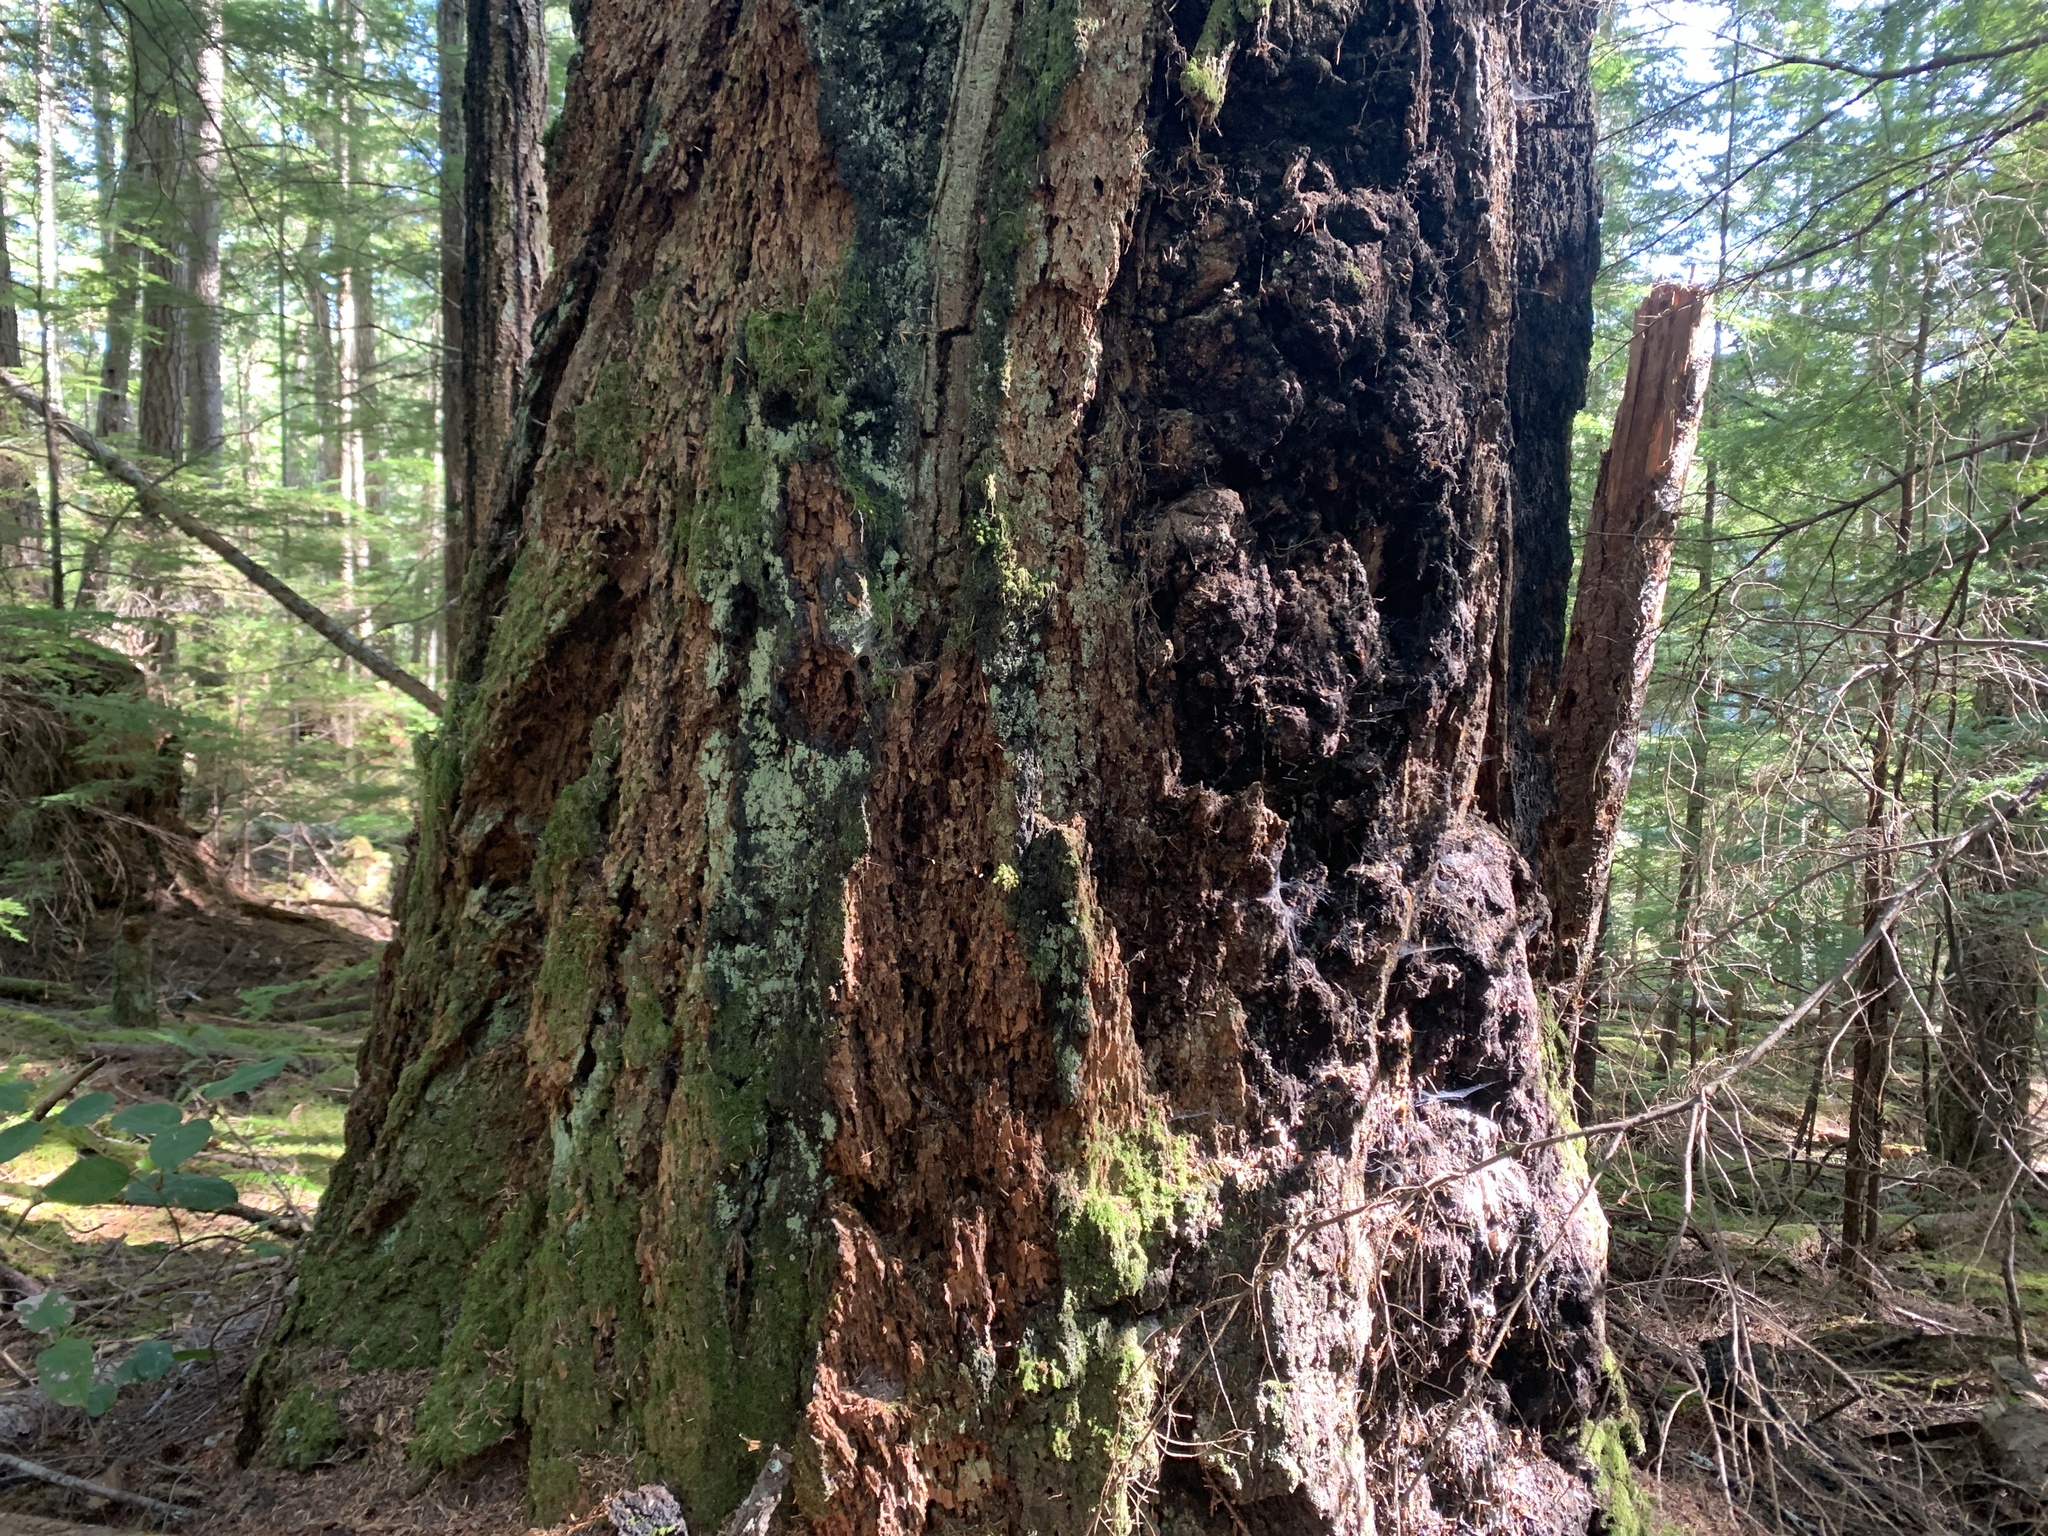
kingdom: Plantae
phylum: Tracheophyta
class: Pinopsida
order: Pinales
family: Pinaceae
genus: Pseudotsuga
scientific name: Pseudotsuga menziesii
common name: Douglas fir
